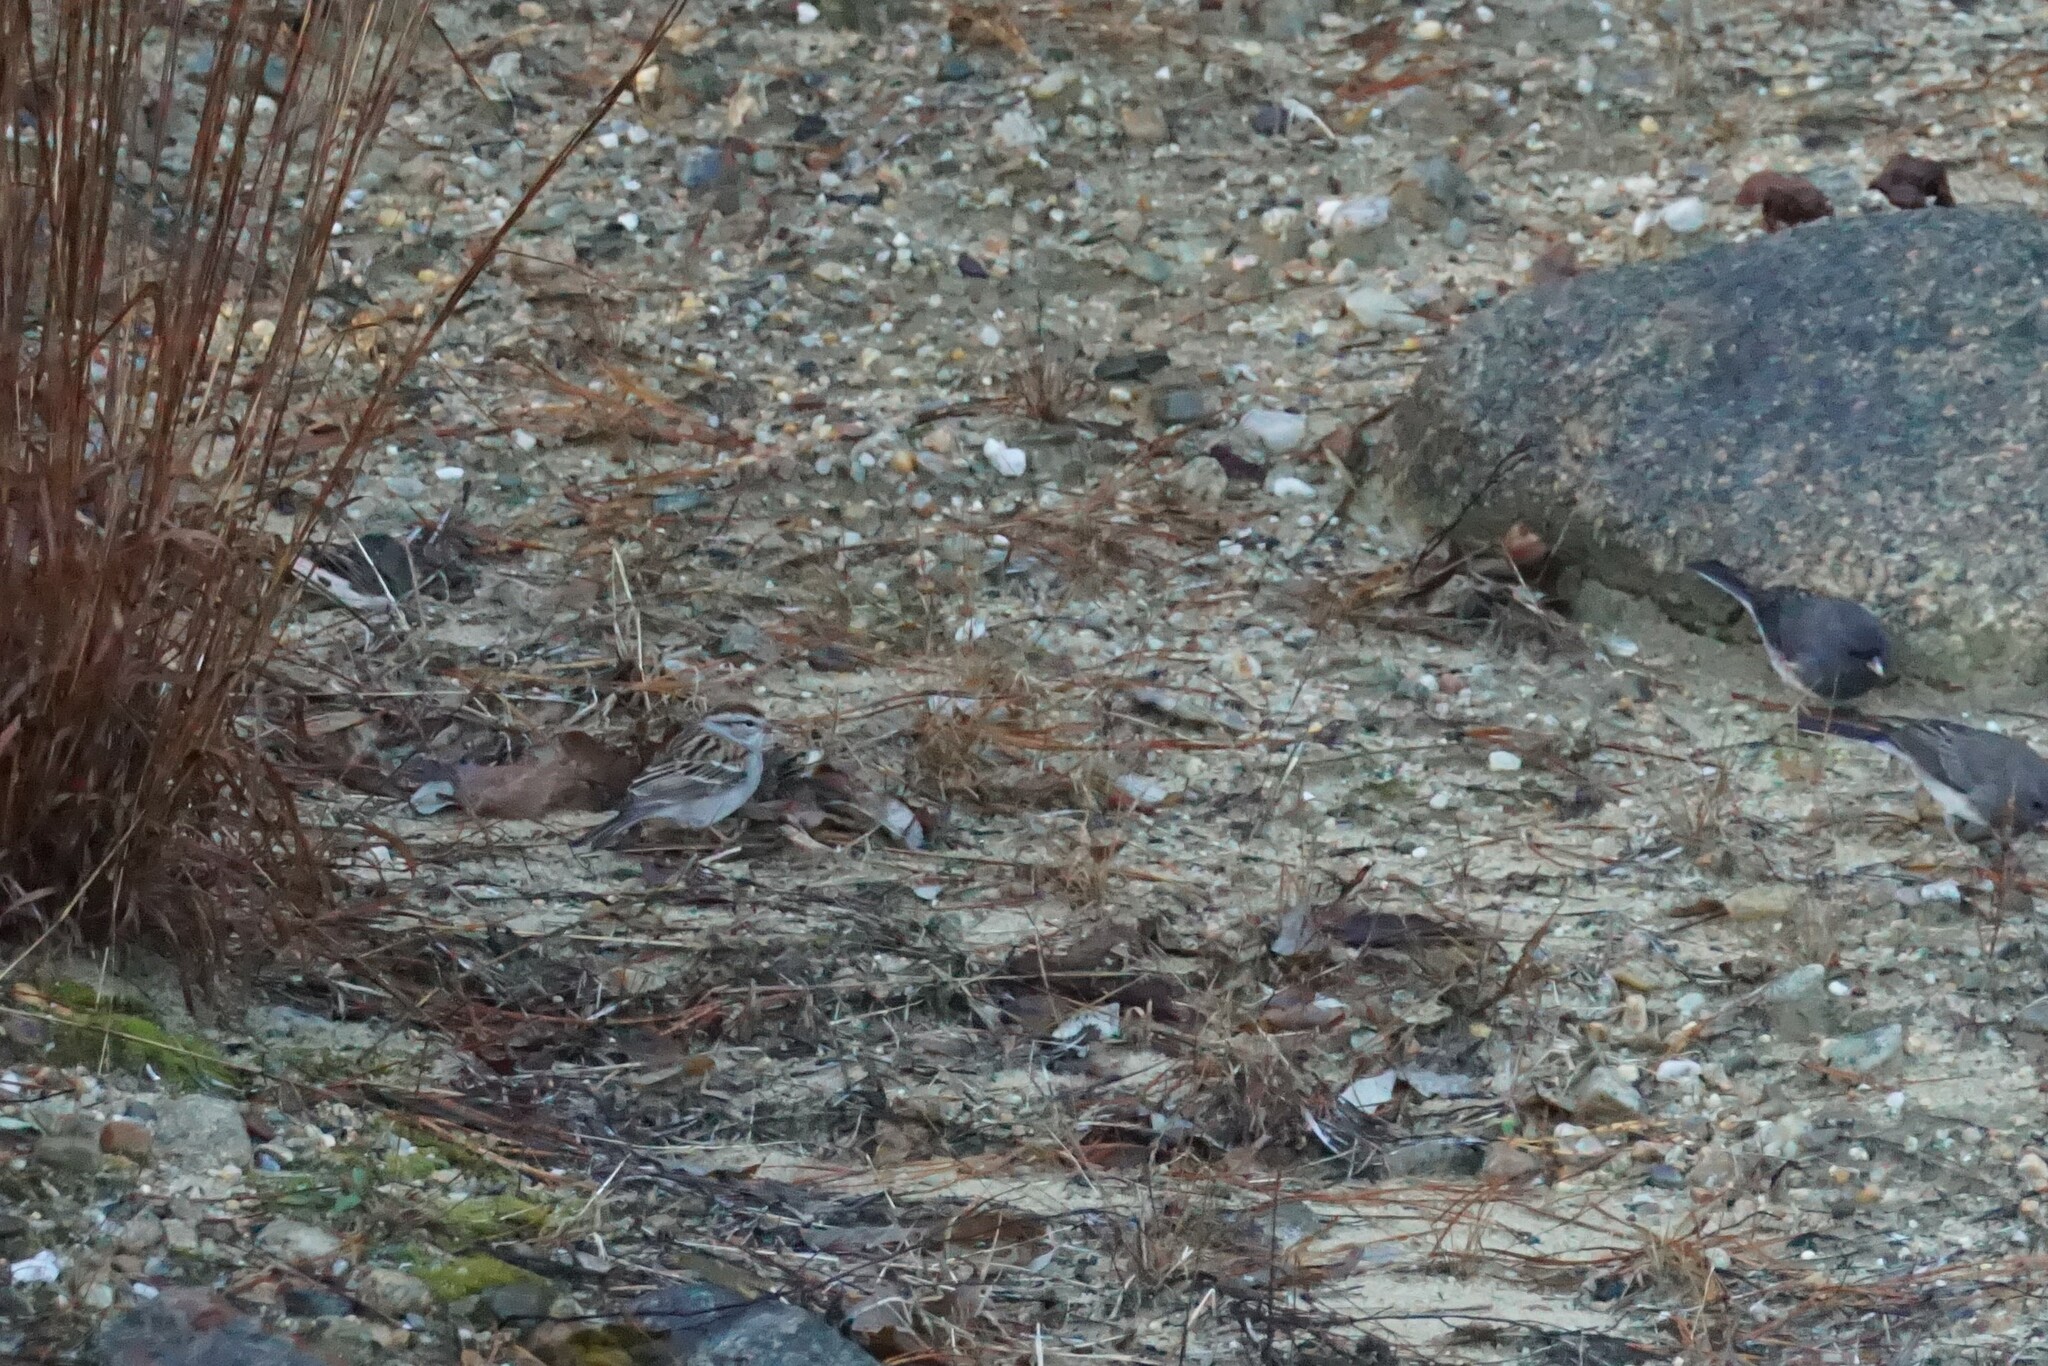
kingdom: Animalia
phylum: Chordata
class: Aves
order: Passeriformes
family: Passerellidae
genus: Spizella
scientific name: Spizella passerina
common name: Chipping sparrow
